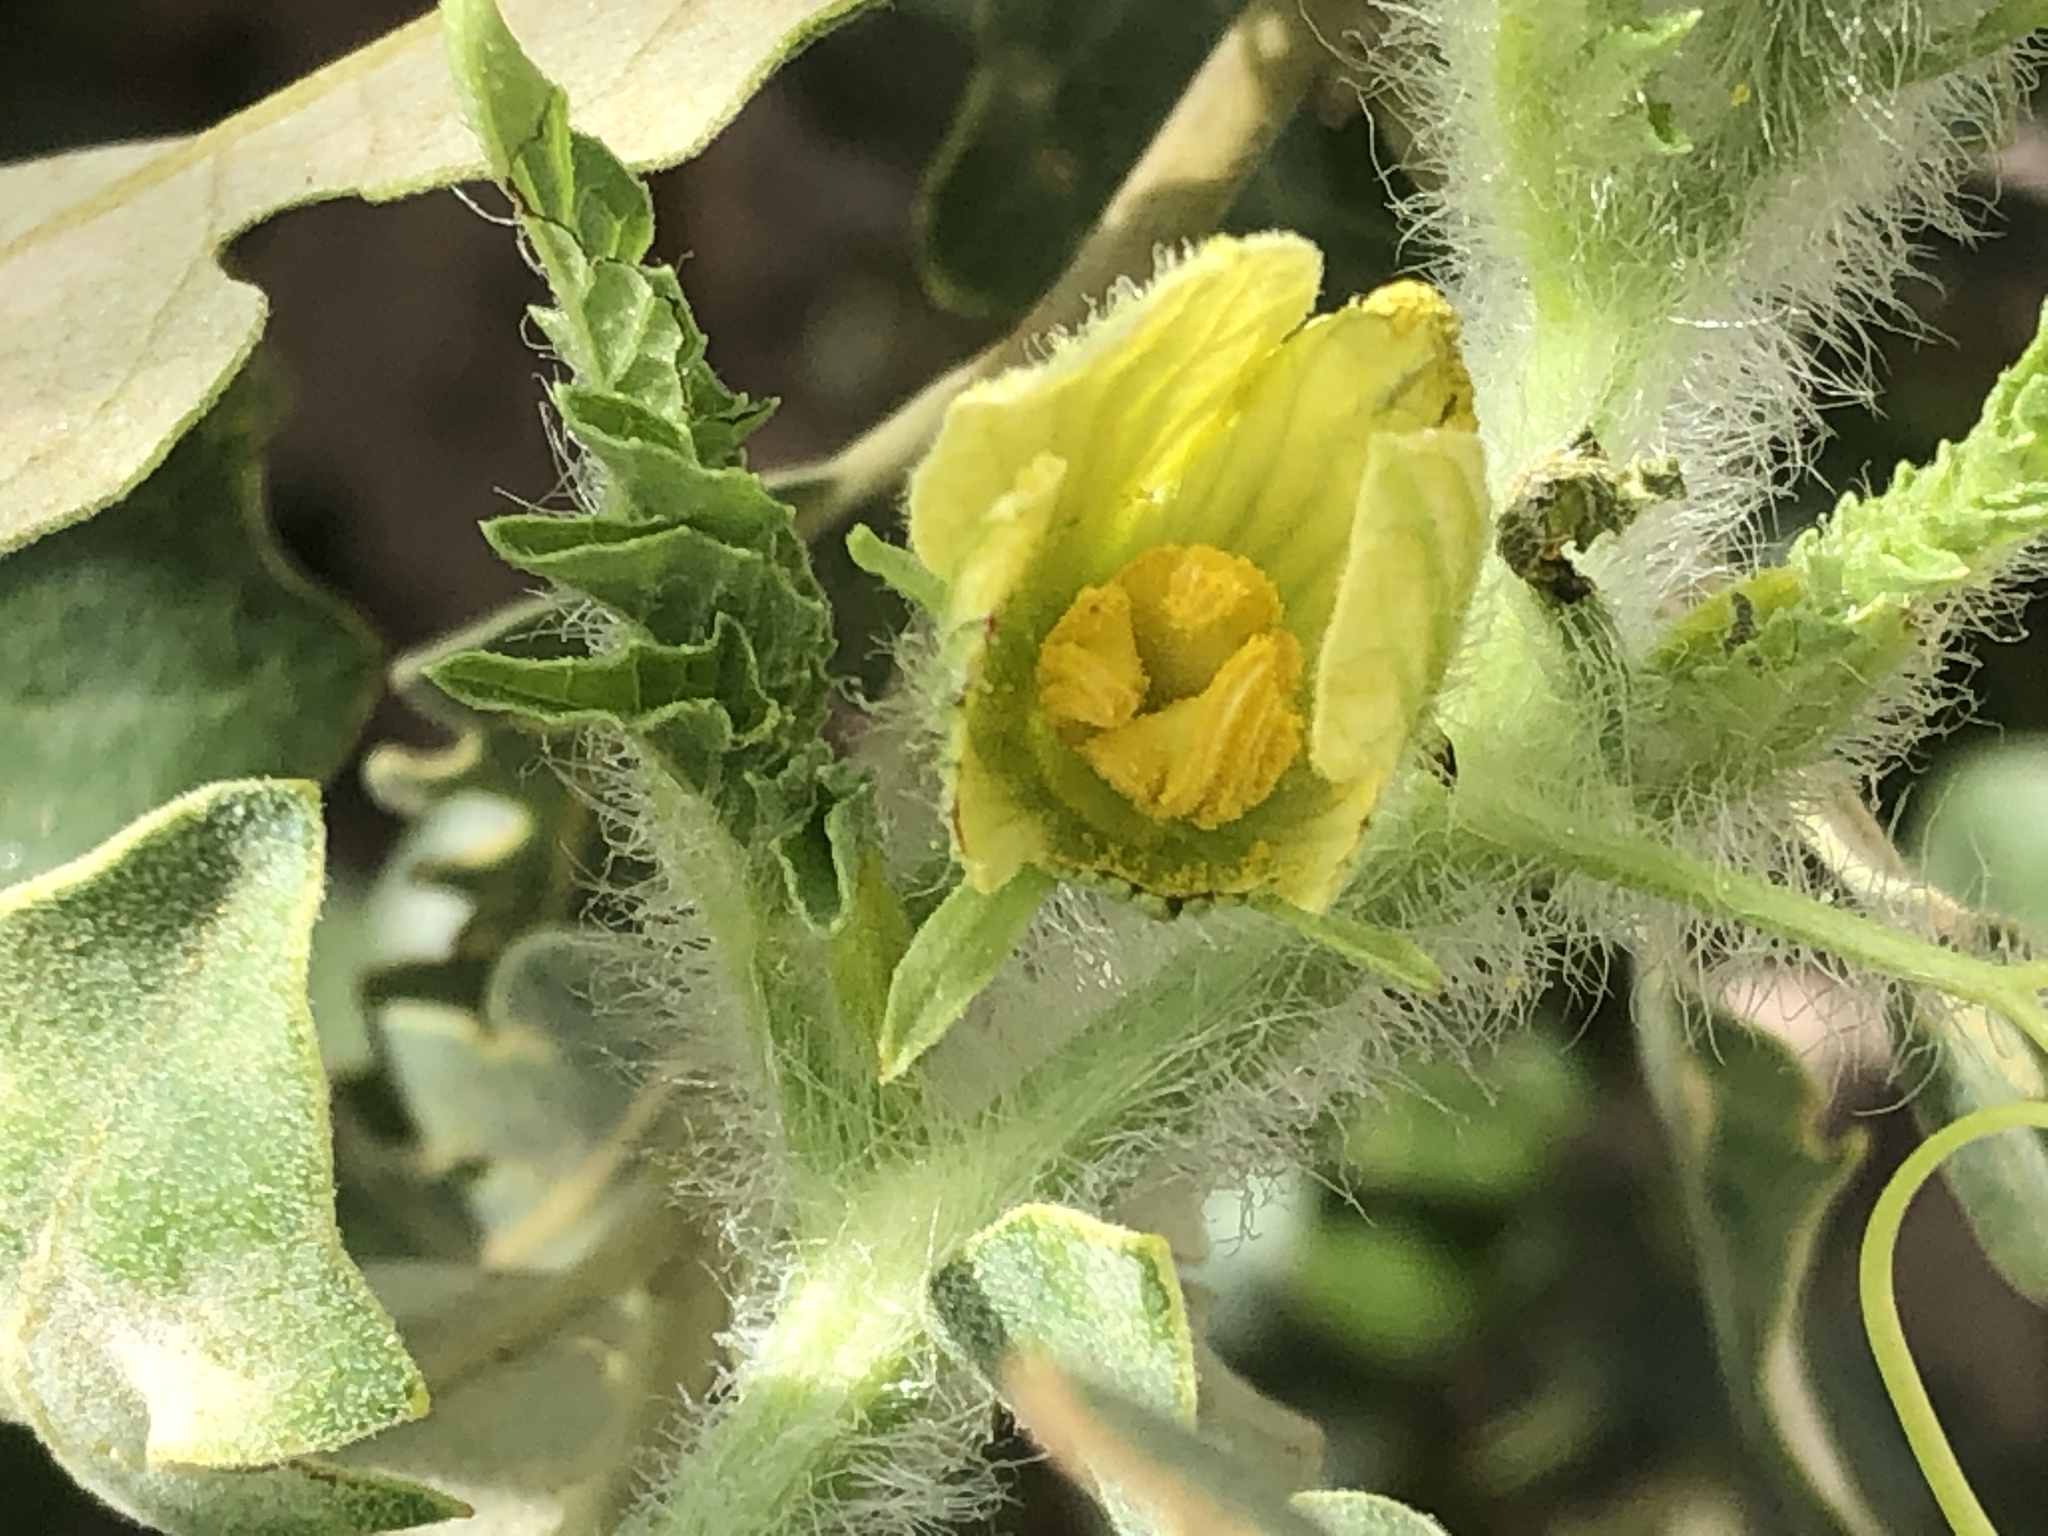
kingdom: Plantae
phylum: Tracheophyta
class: Magnoliopsida
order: Cucurbitales
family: Cucurbitaceae
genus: Citrullus
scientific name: Citrullus amarus
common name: Fodder-melon
